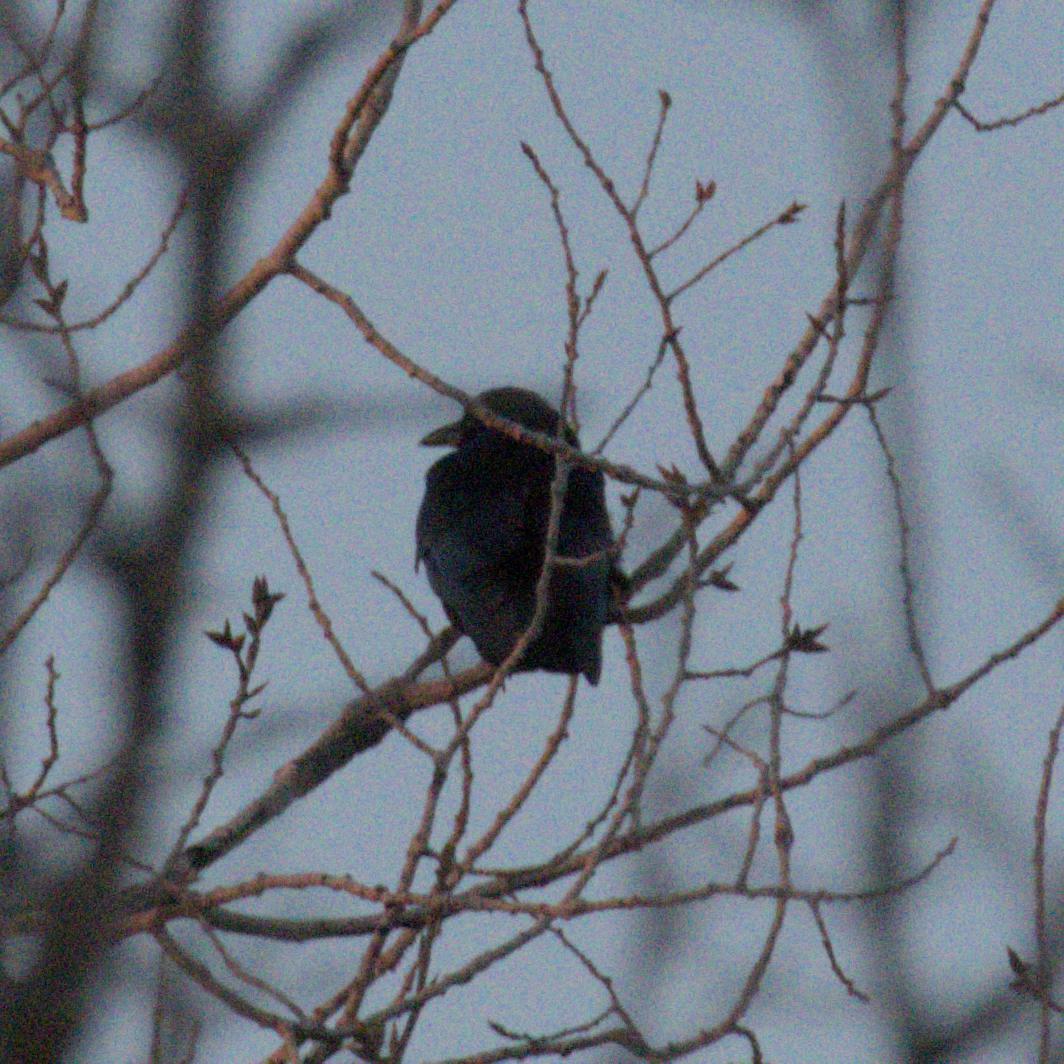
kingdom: Animalia
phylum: Chordata
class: Aves
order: Passeriformes
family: Corvidae
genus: Corvus
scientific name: Corvus brachyrhynchos
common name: American crow
